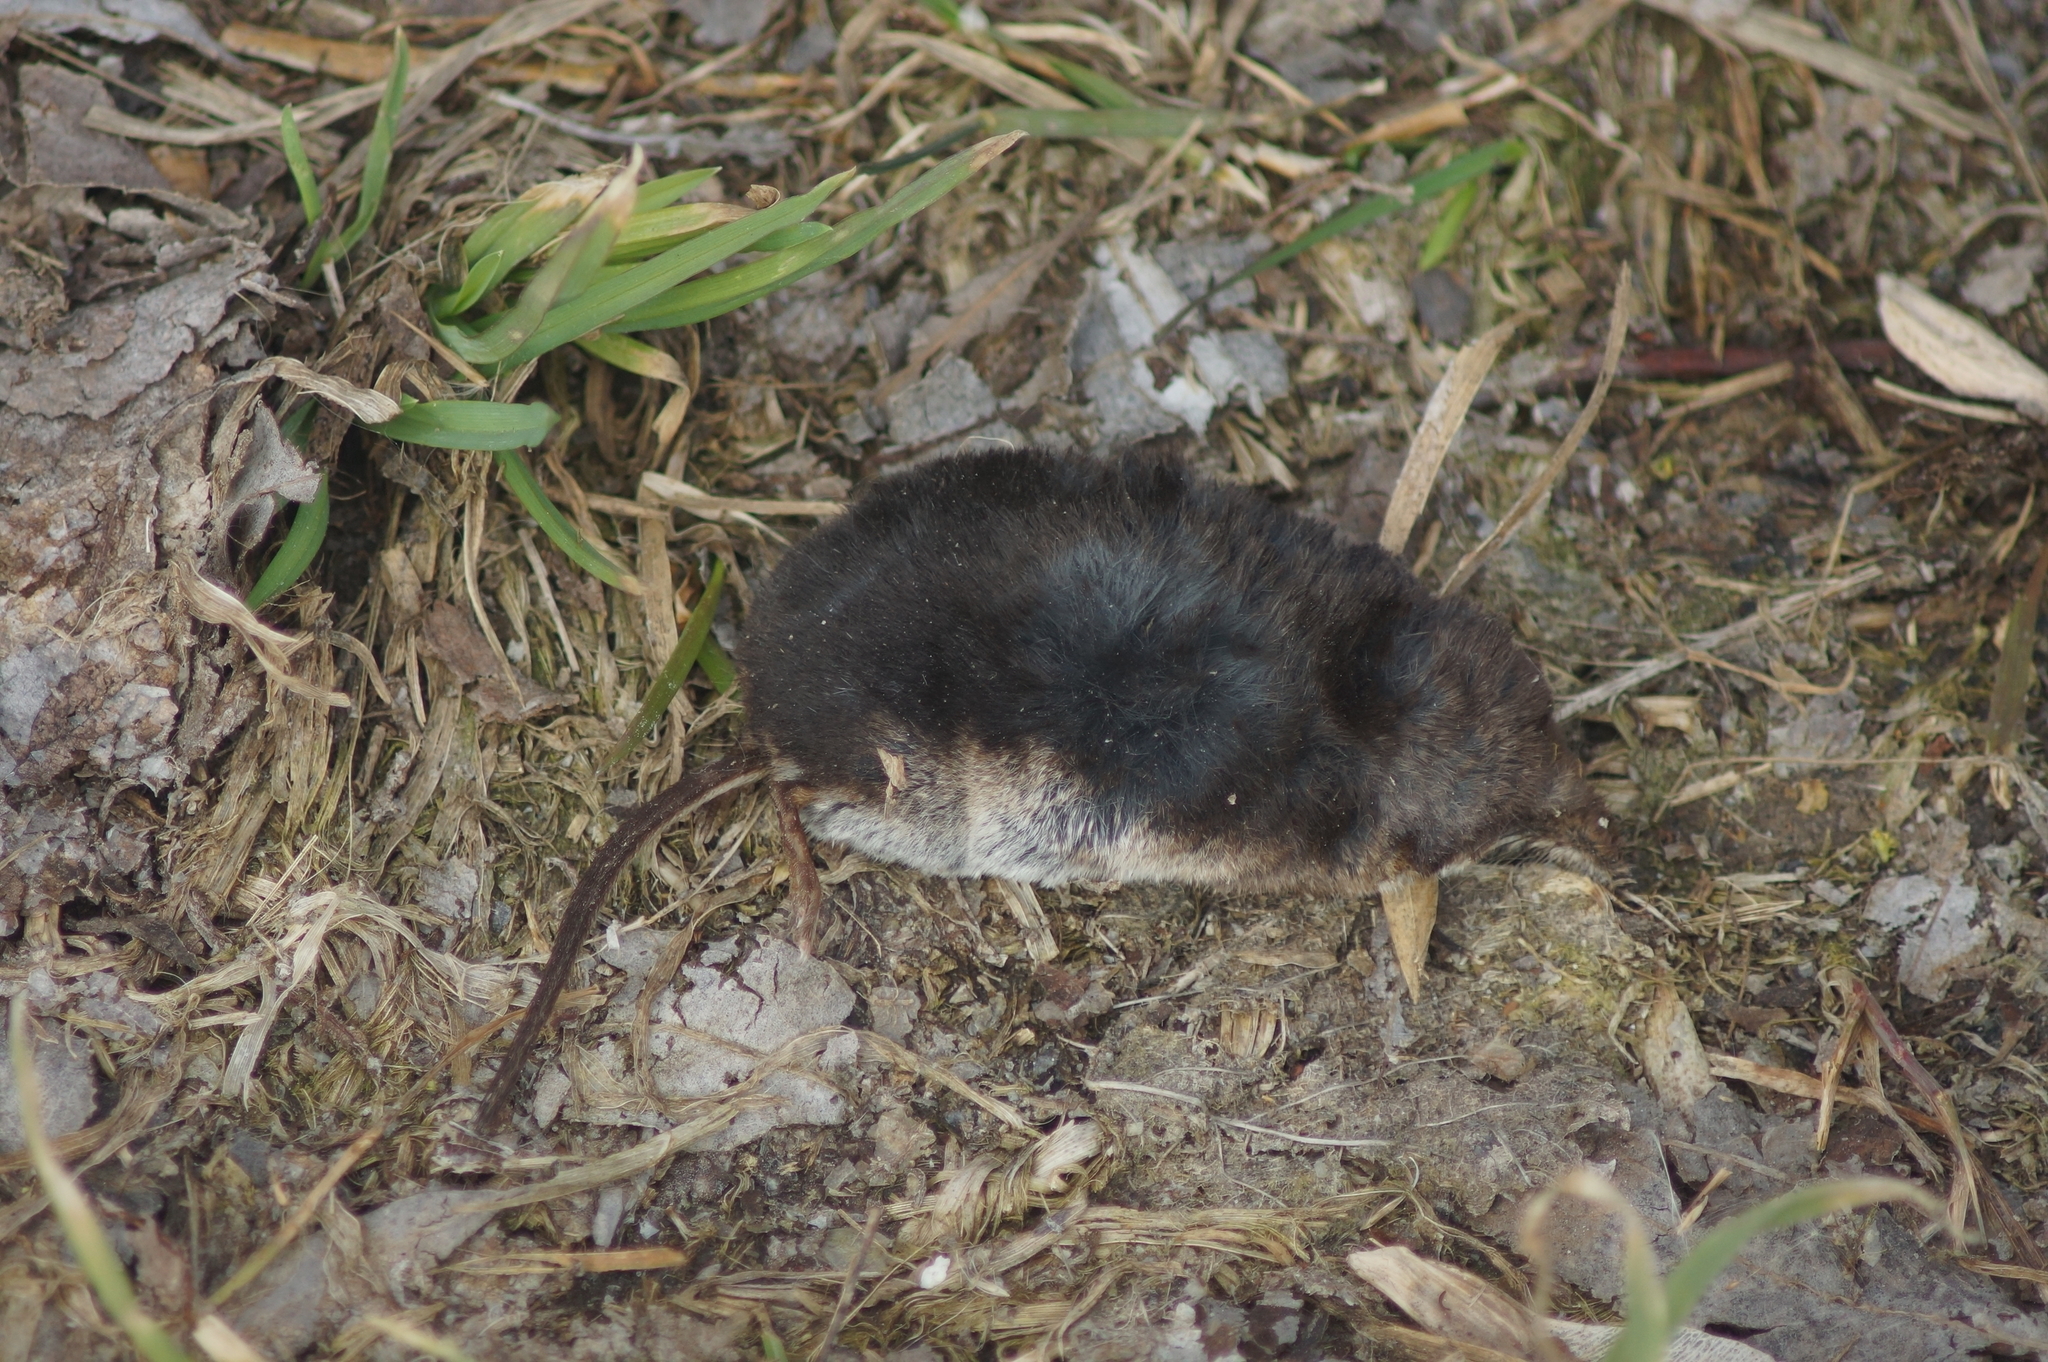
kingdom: Animalia
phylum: Chordata
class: Mammalia
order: Soricomorpha
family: Soricidae
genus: Sorex
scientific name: Sorex araneus
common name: Common shrew
